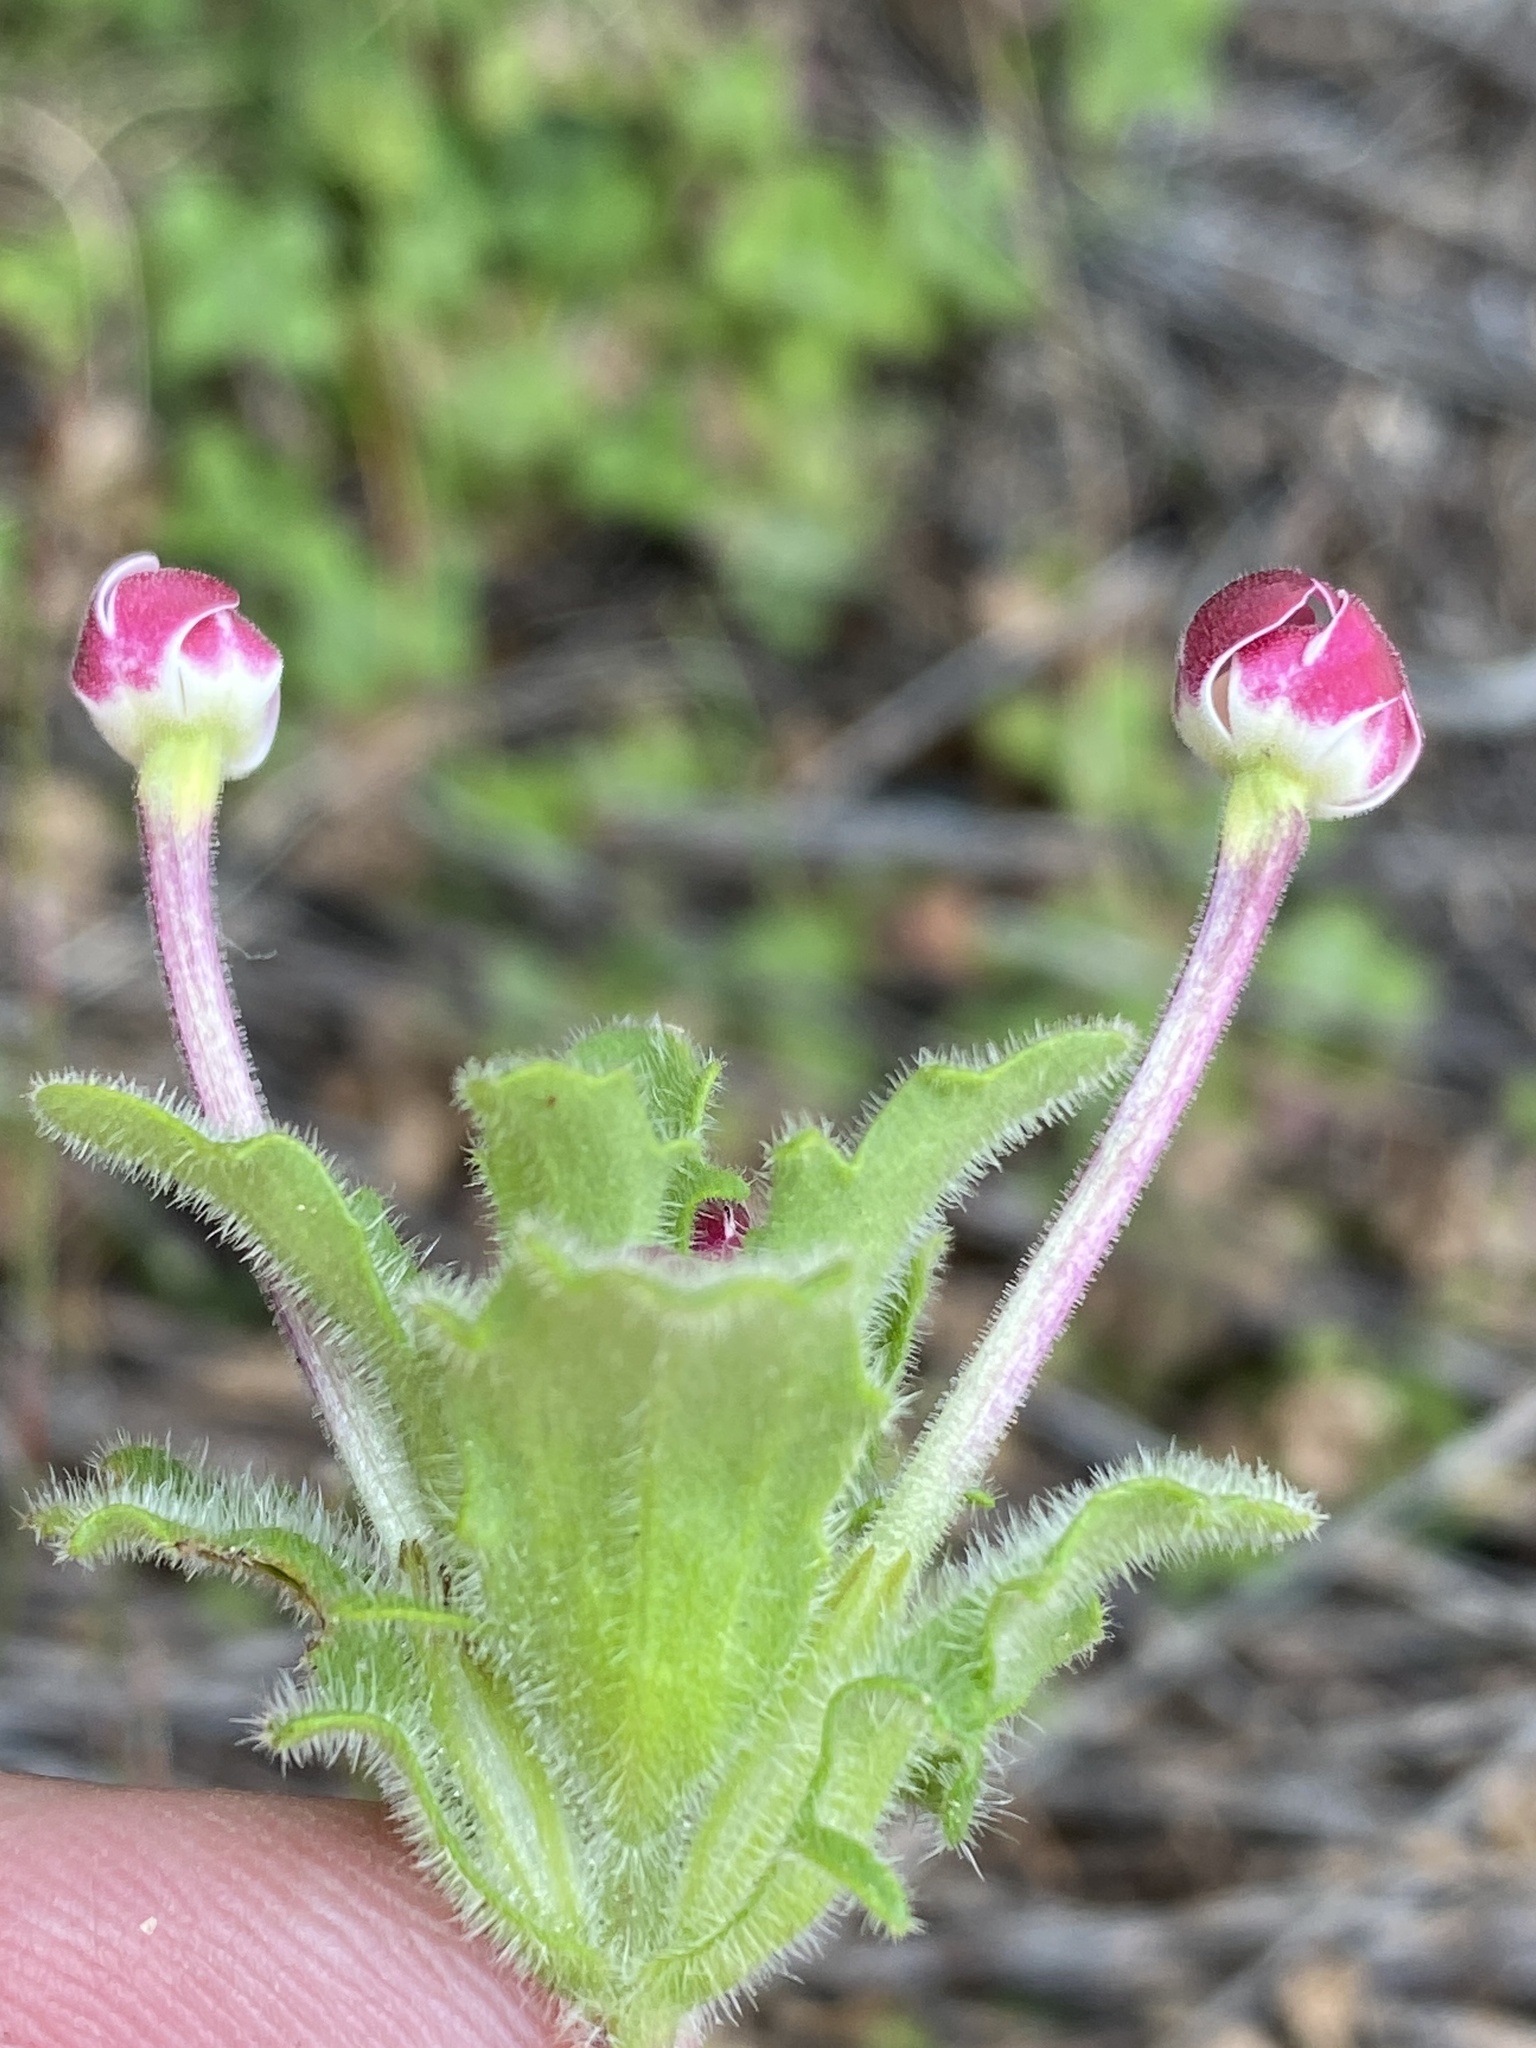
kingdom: Plantae
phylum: Tracheophyta
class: Magnoliopsida
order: Lamiales
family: Scrophulariaceae
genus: Zaluzianskya
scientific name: Zaluzianskya capensis
